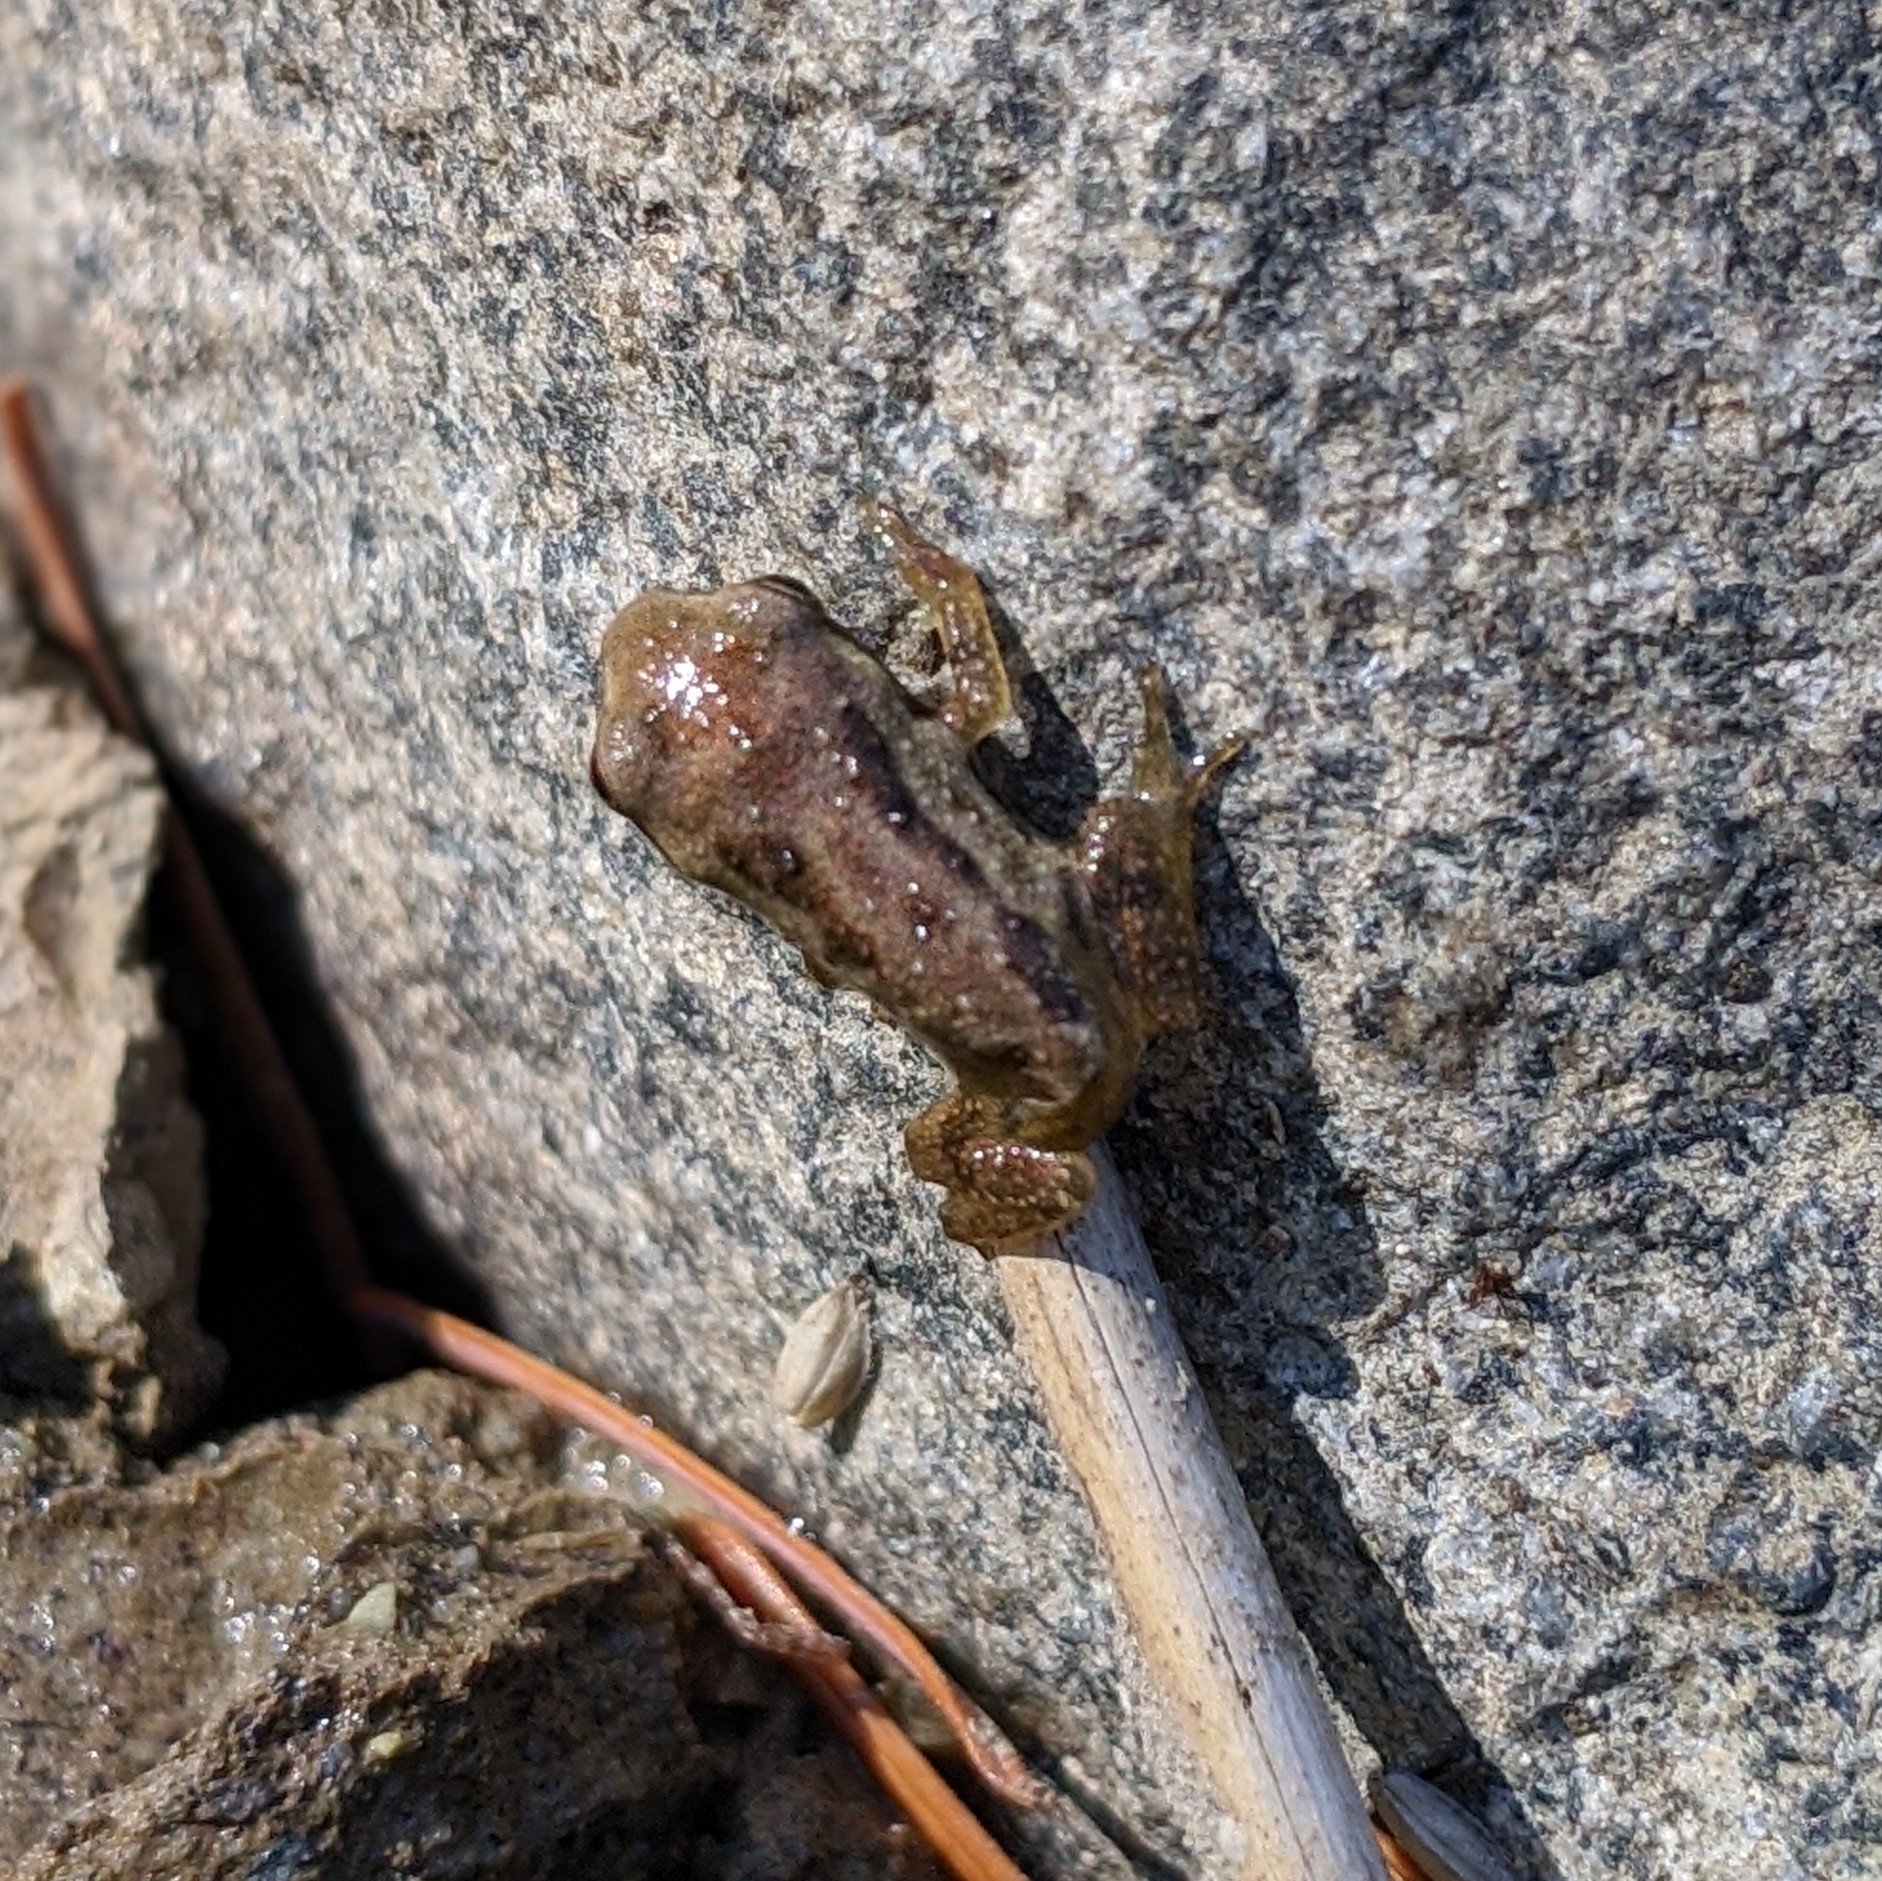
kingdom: Animalia
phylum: Chordata
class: Amphibia
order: Anura
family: Hylidae
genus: Pseudacris
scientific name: Pseudacris regilla
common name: Pacific chorus frog
